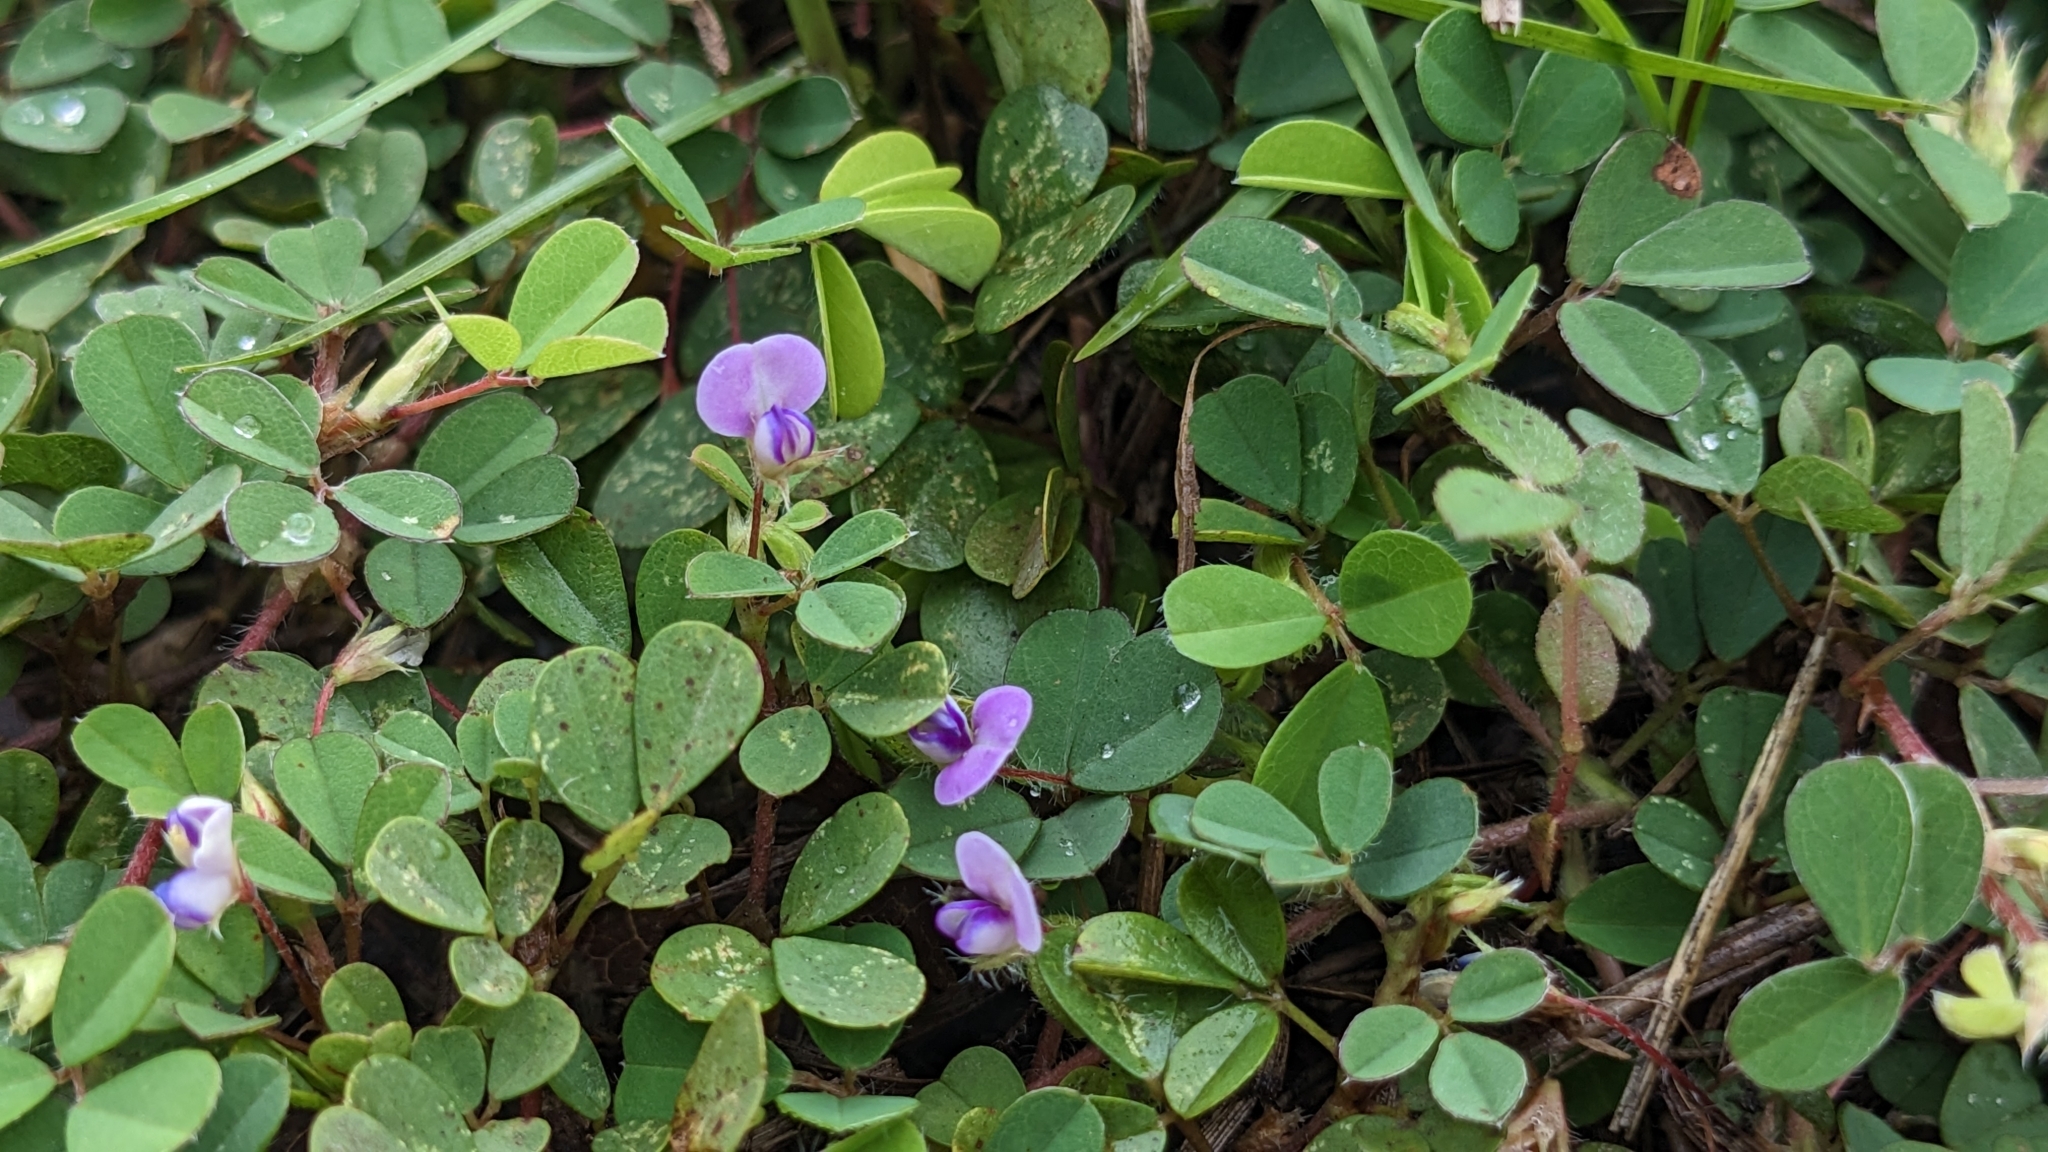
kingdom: Plantae
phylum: Tracheophyta
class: Magnoliopsida
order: Fabales
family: Fabaceae
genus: Grona
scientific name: Grona triflora
